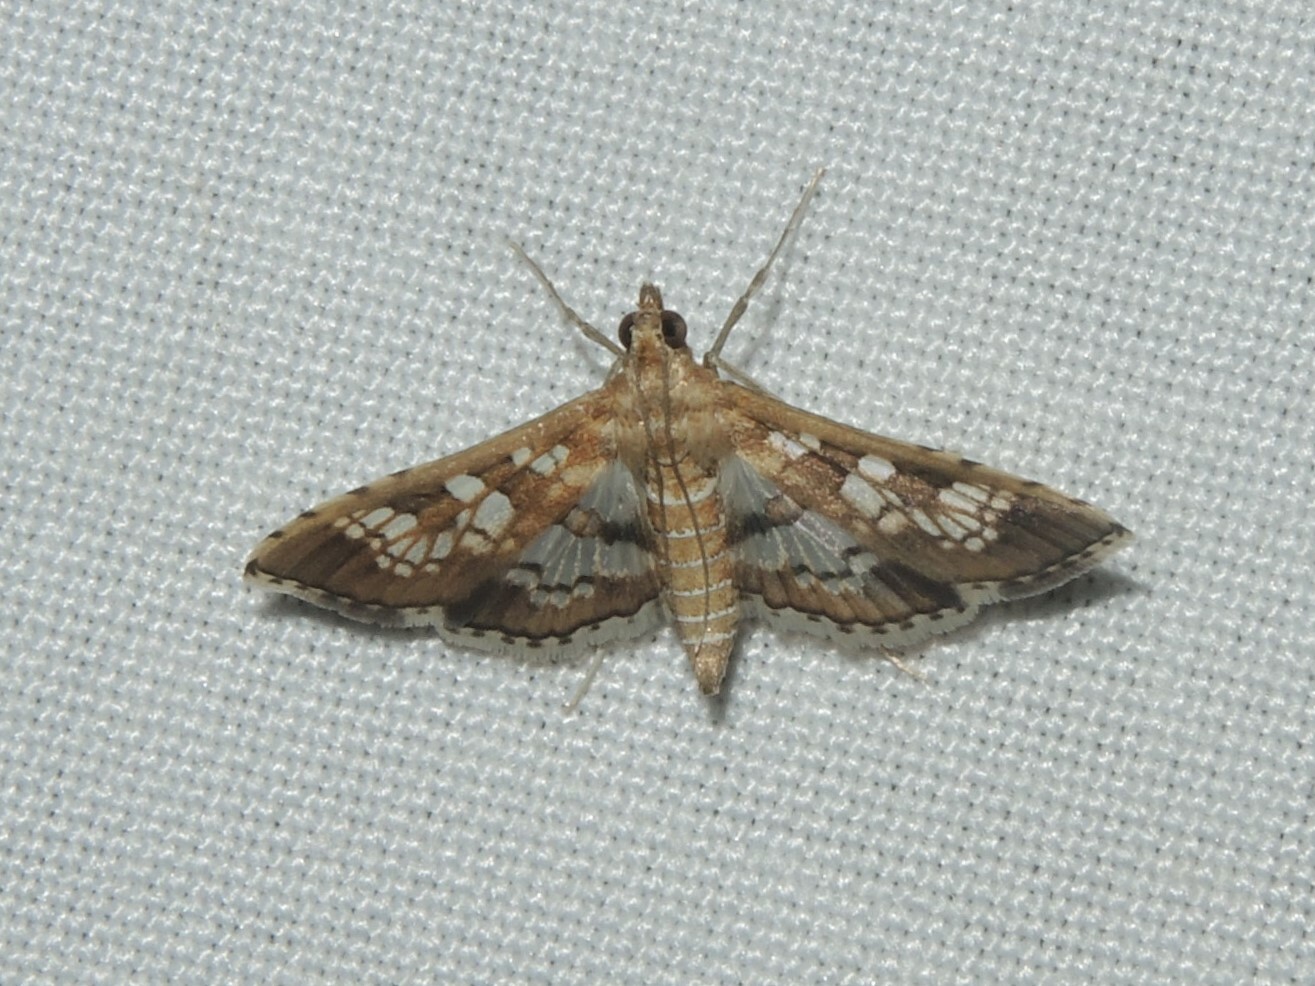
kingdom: Animalia
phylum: Arthropoda
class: Insecta
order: Lepidoptera
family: Crambidae
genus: Sameodes
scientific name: Sameodes cancellalis
